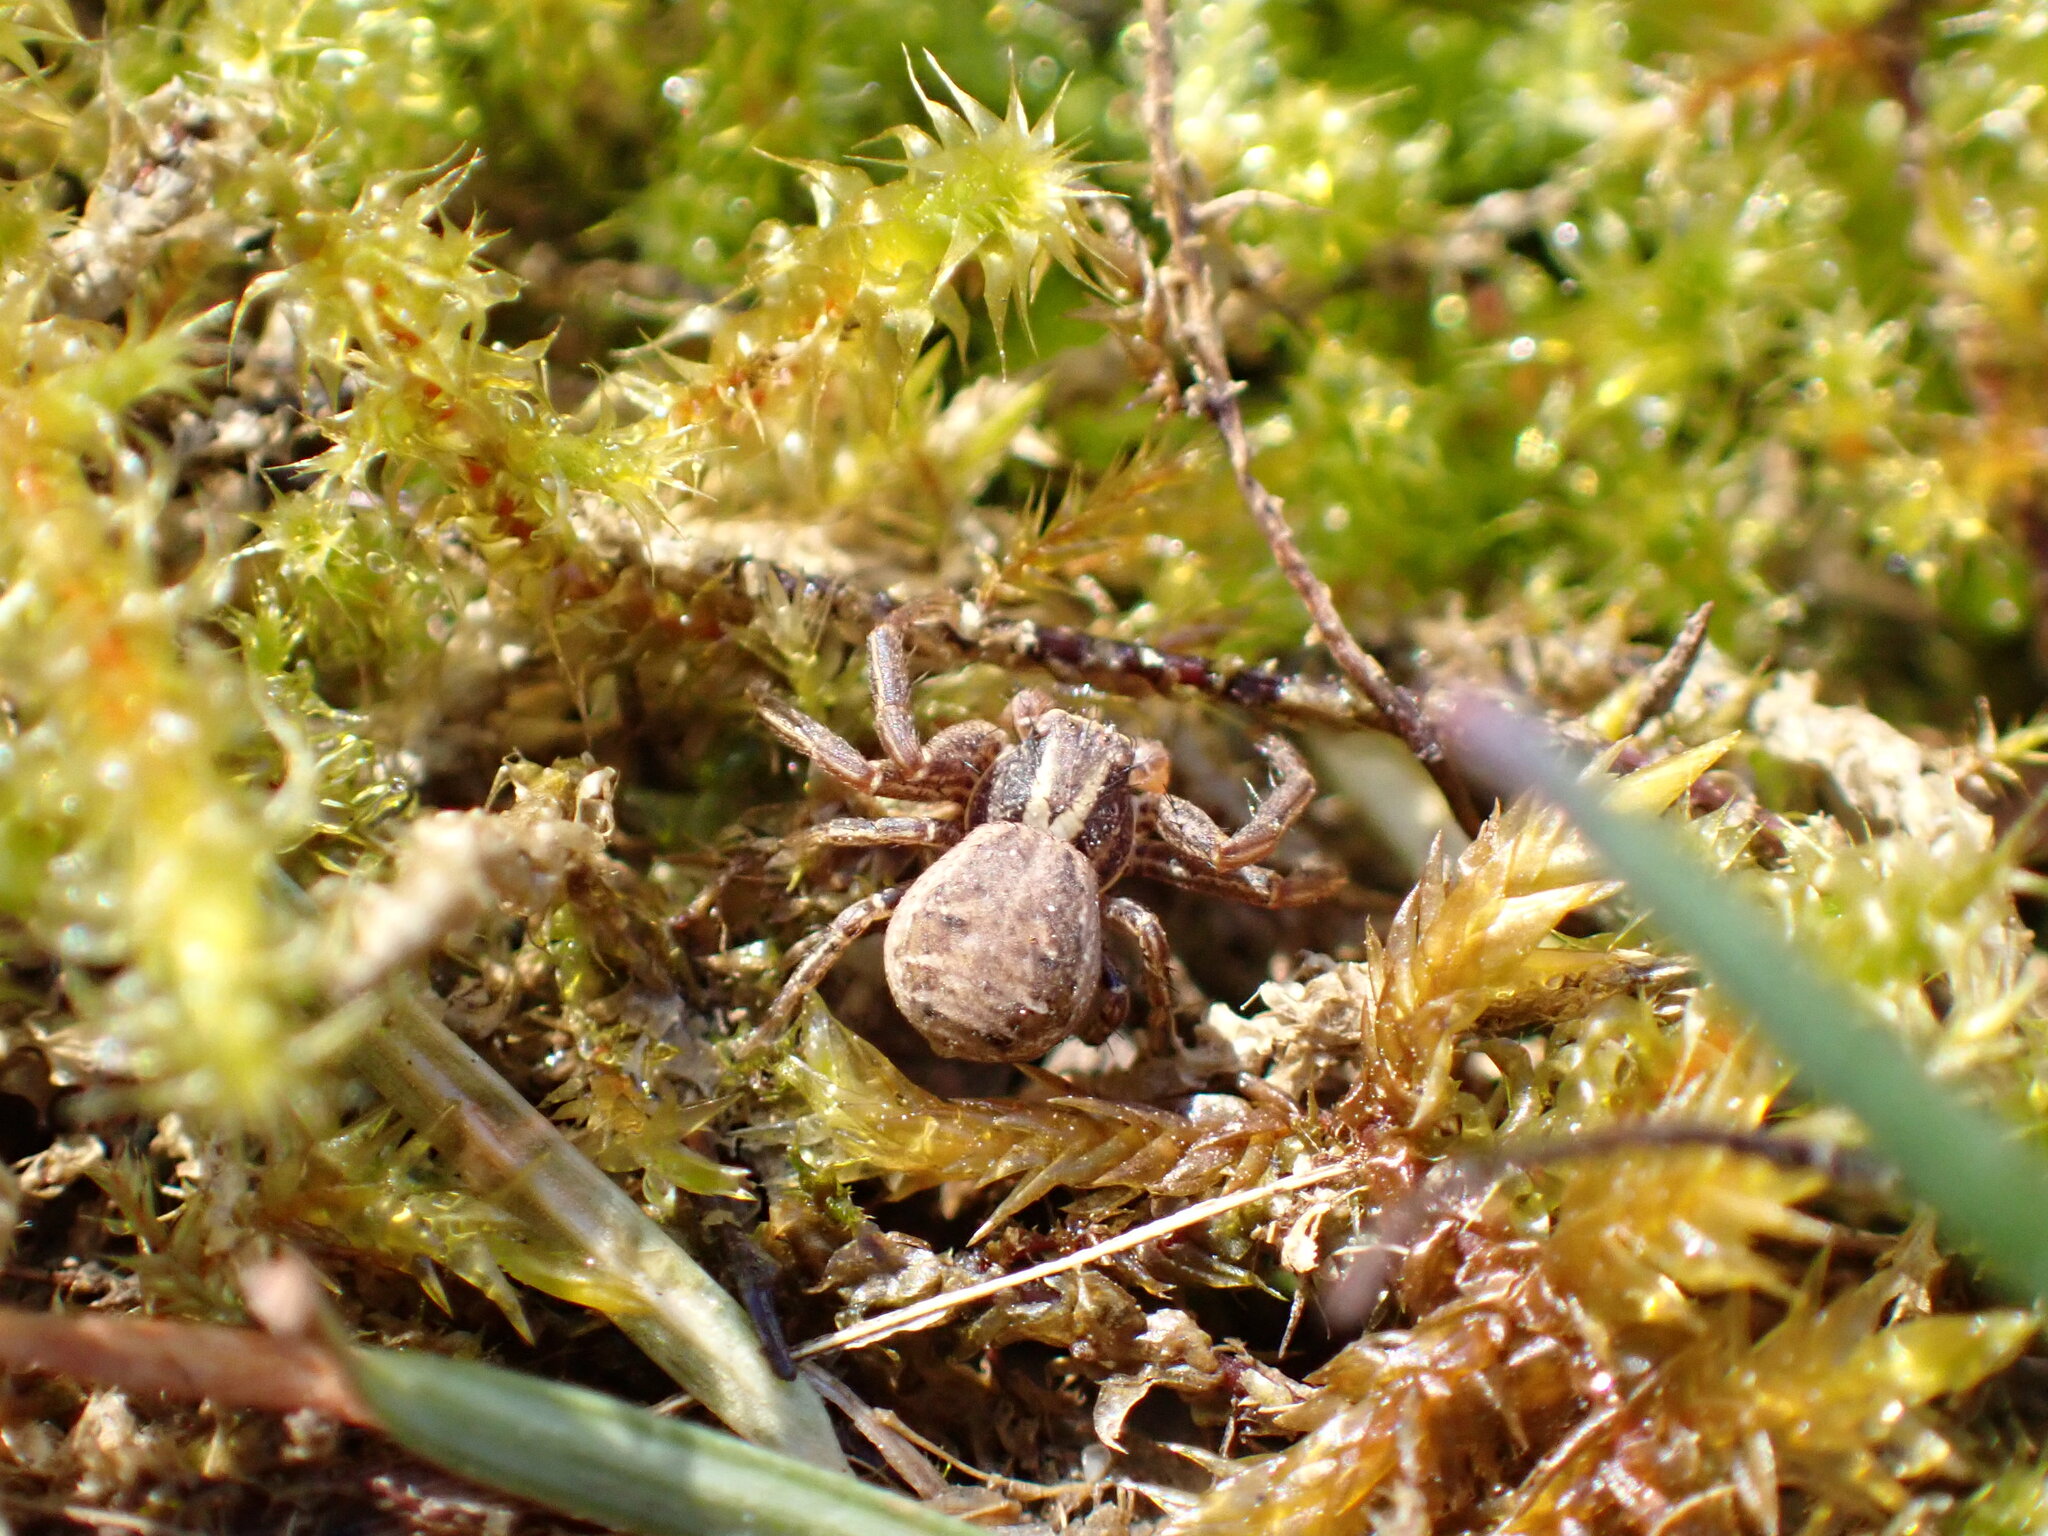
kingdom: Animalia
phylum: Arthropoda
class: Arachnida
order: Araneae
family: Thomisidae
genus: Xysticus
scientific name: Xysticus cristatus
